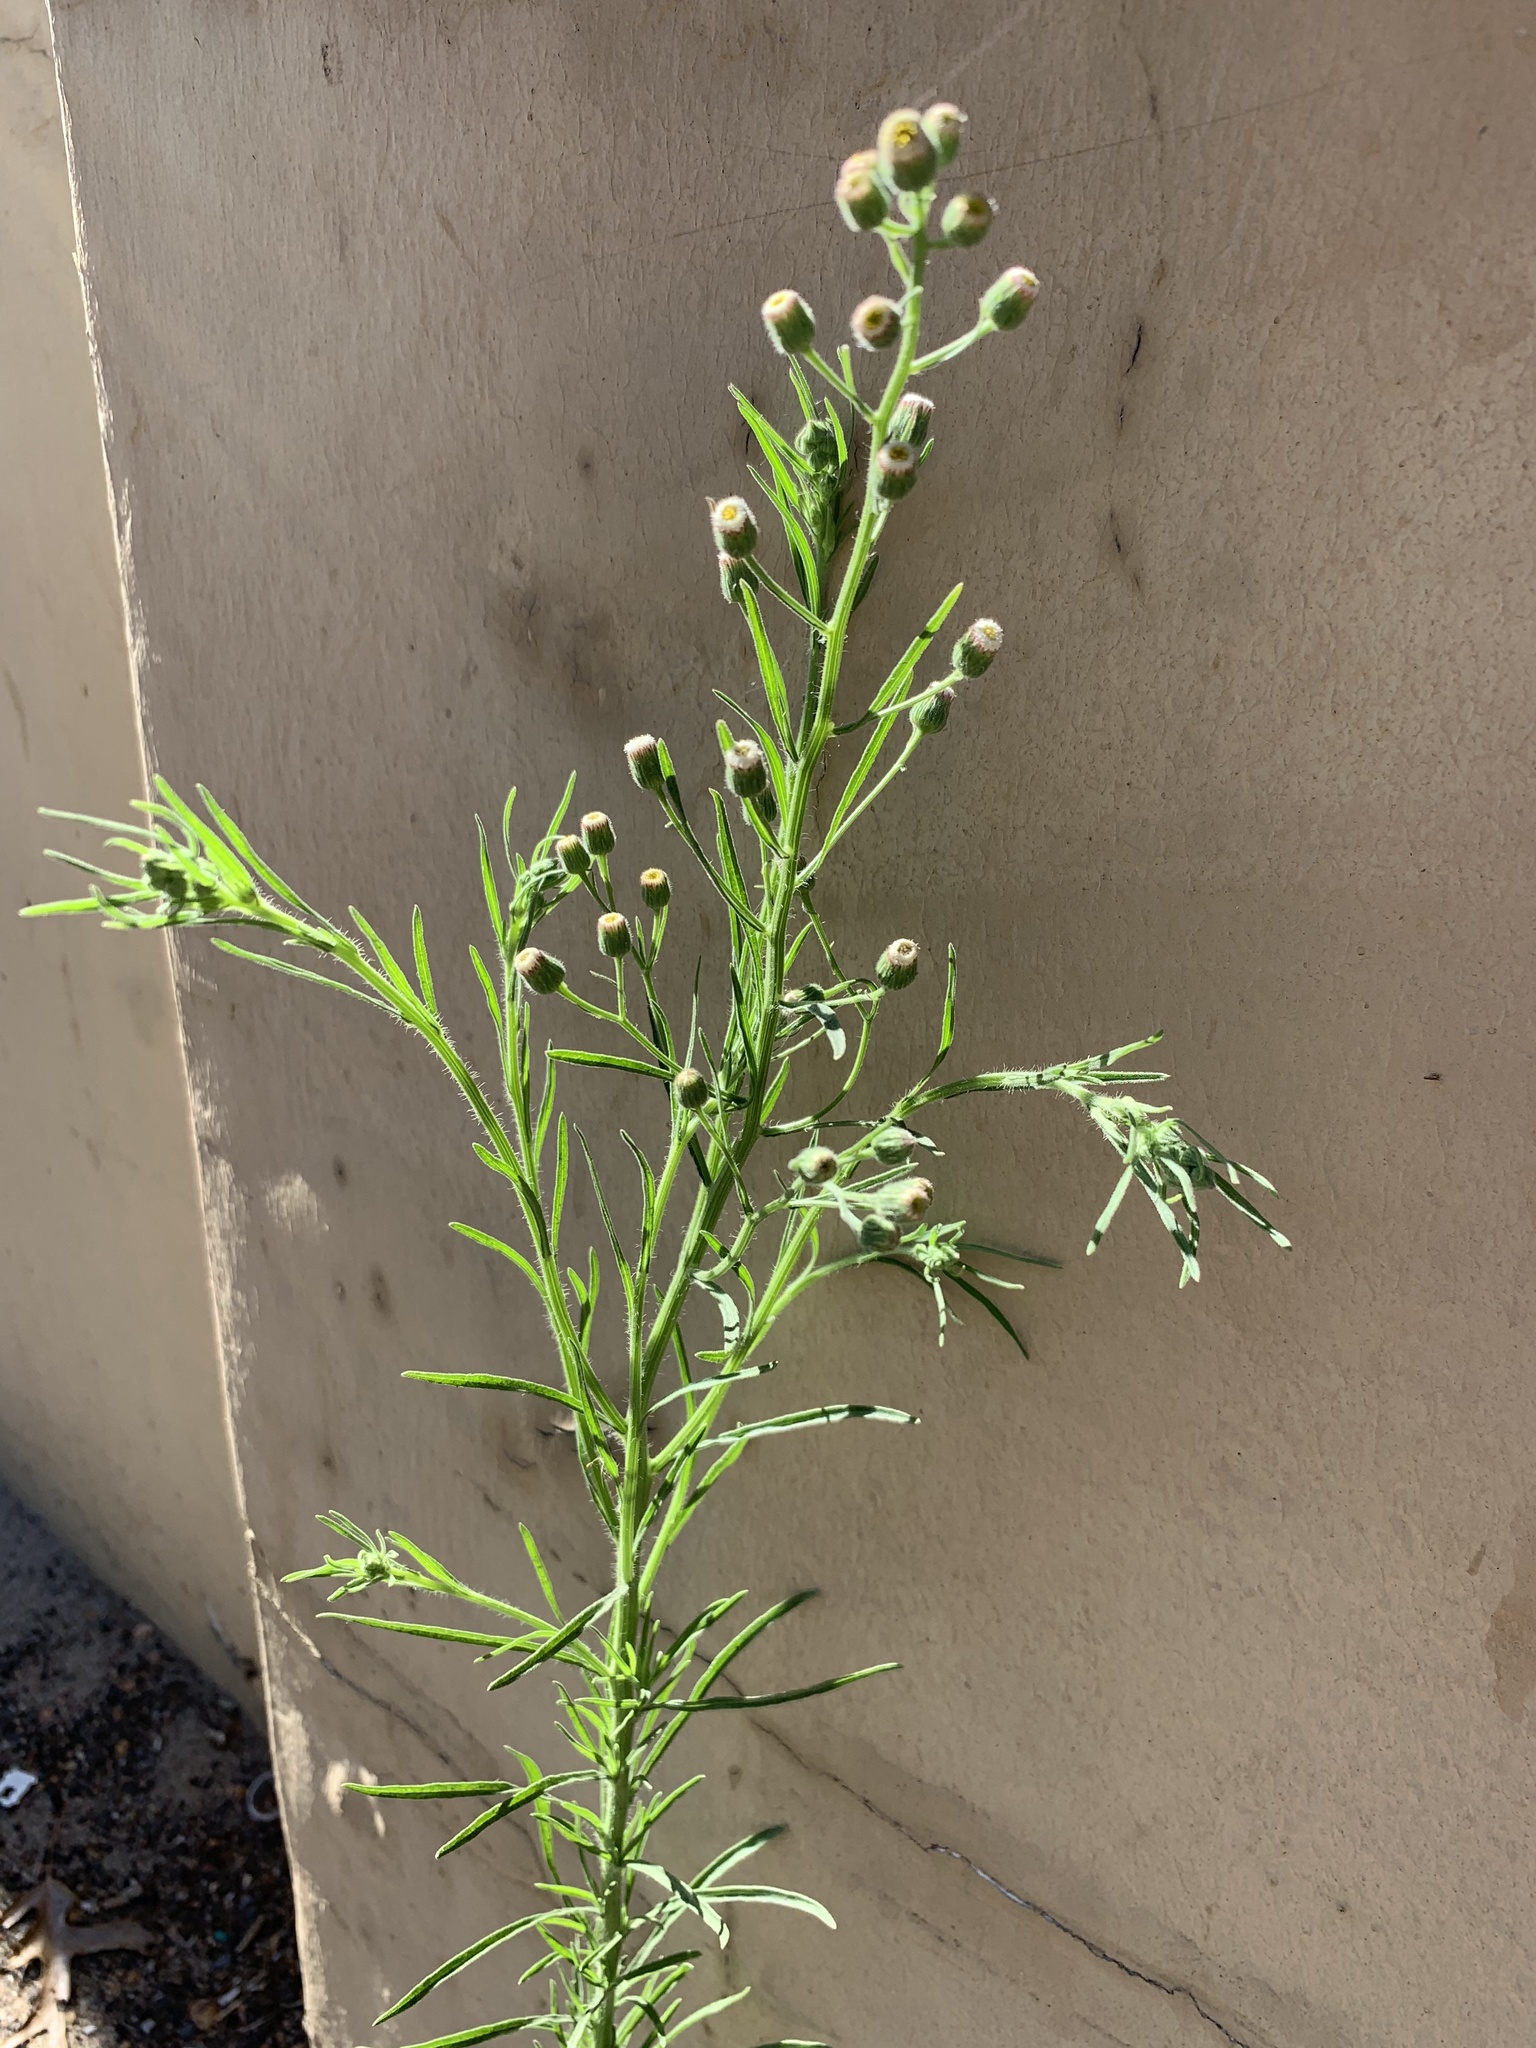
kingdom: Plantae
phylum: Tracheophyta
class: Magnoliopsida
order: Asterales
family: Asteraceae
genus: Erigeron
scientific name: Erigeron bonariensis
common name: Argentine fleabane
